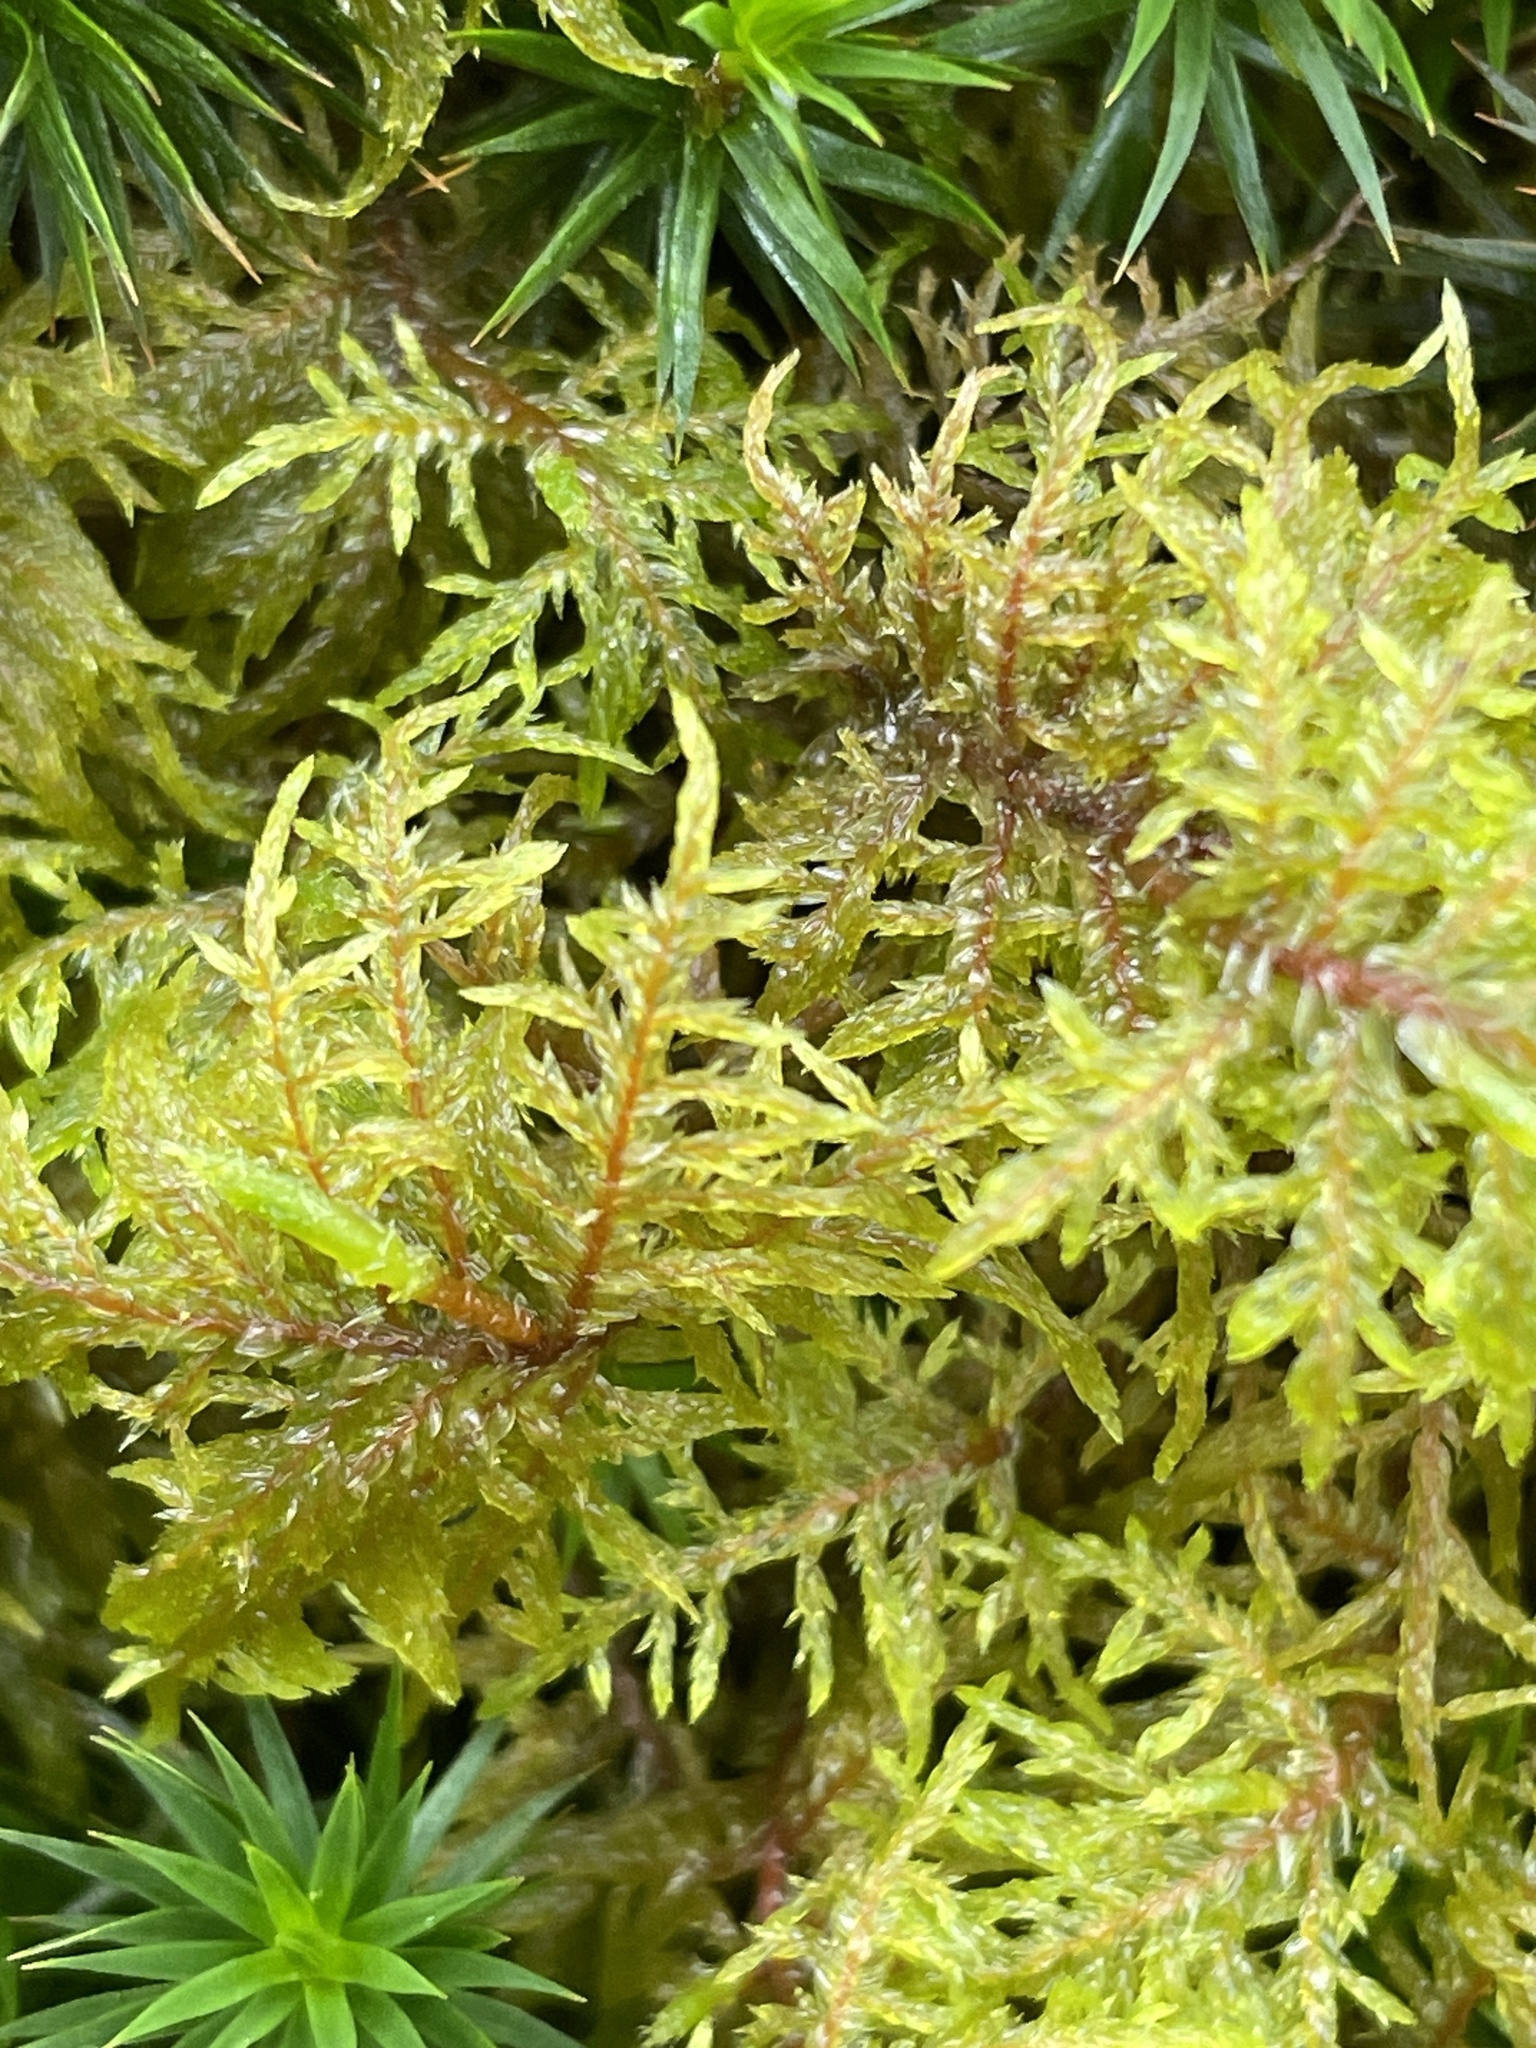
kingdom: Plantae
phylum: Bryophyta
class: Bryopsida
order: Hypnales
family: Hylocomiaceae
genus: Hylocomium
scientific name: Hylocomium splendens
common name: Stairstep moss
